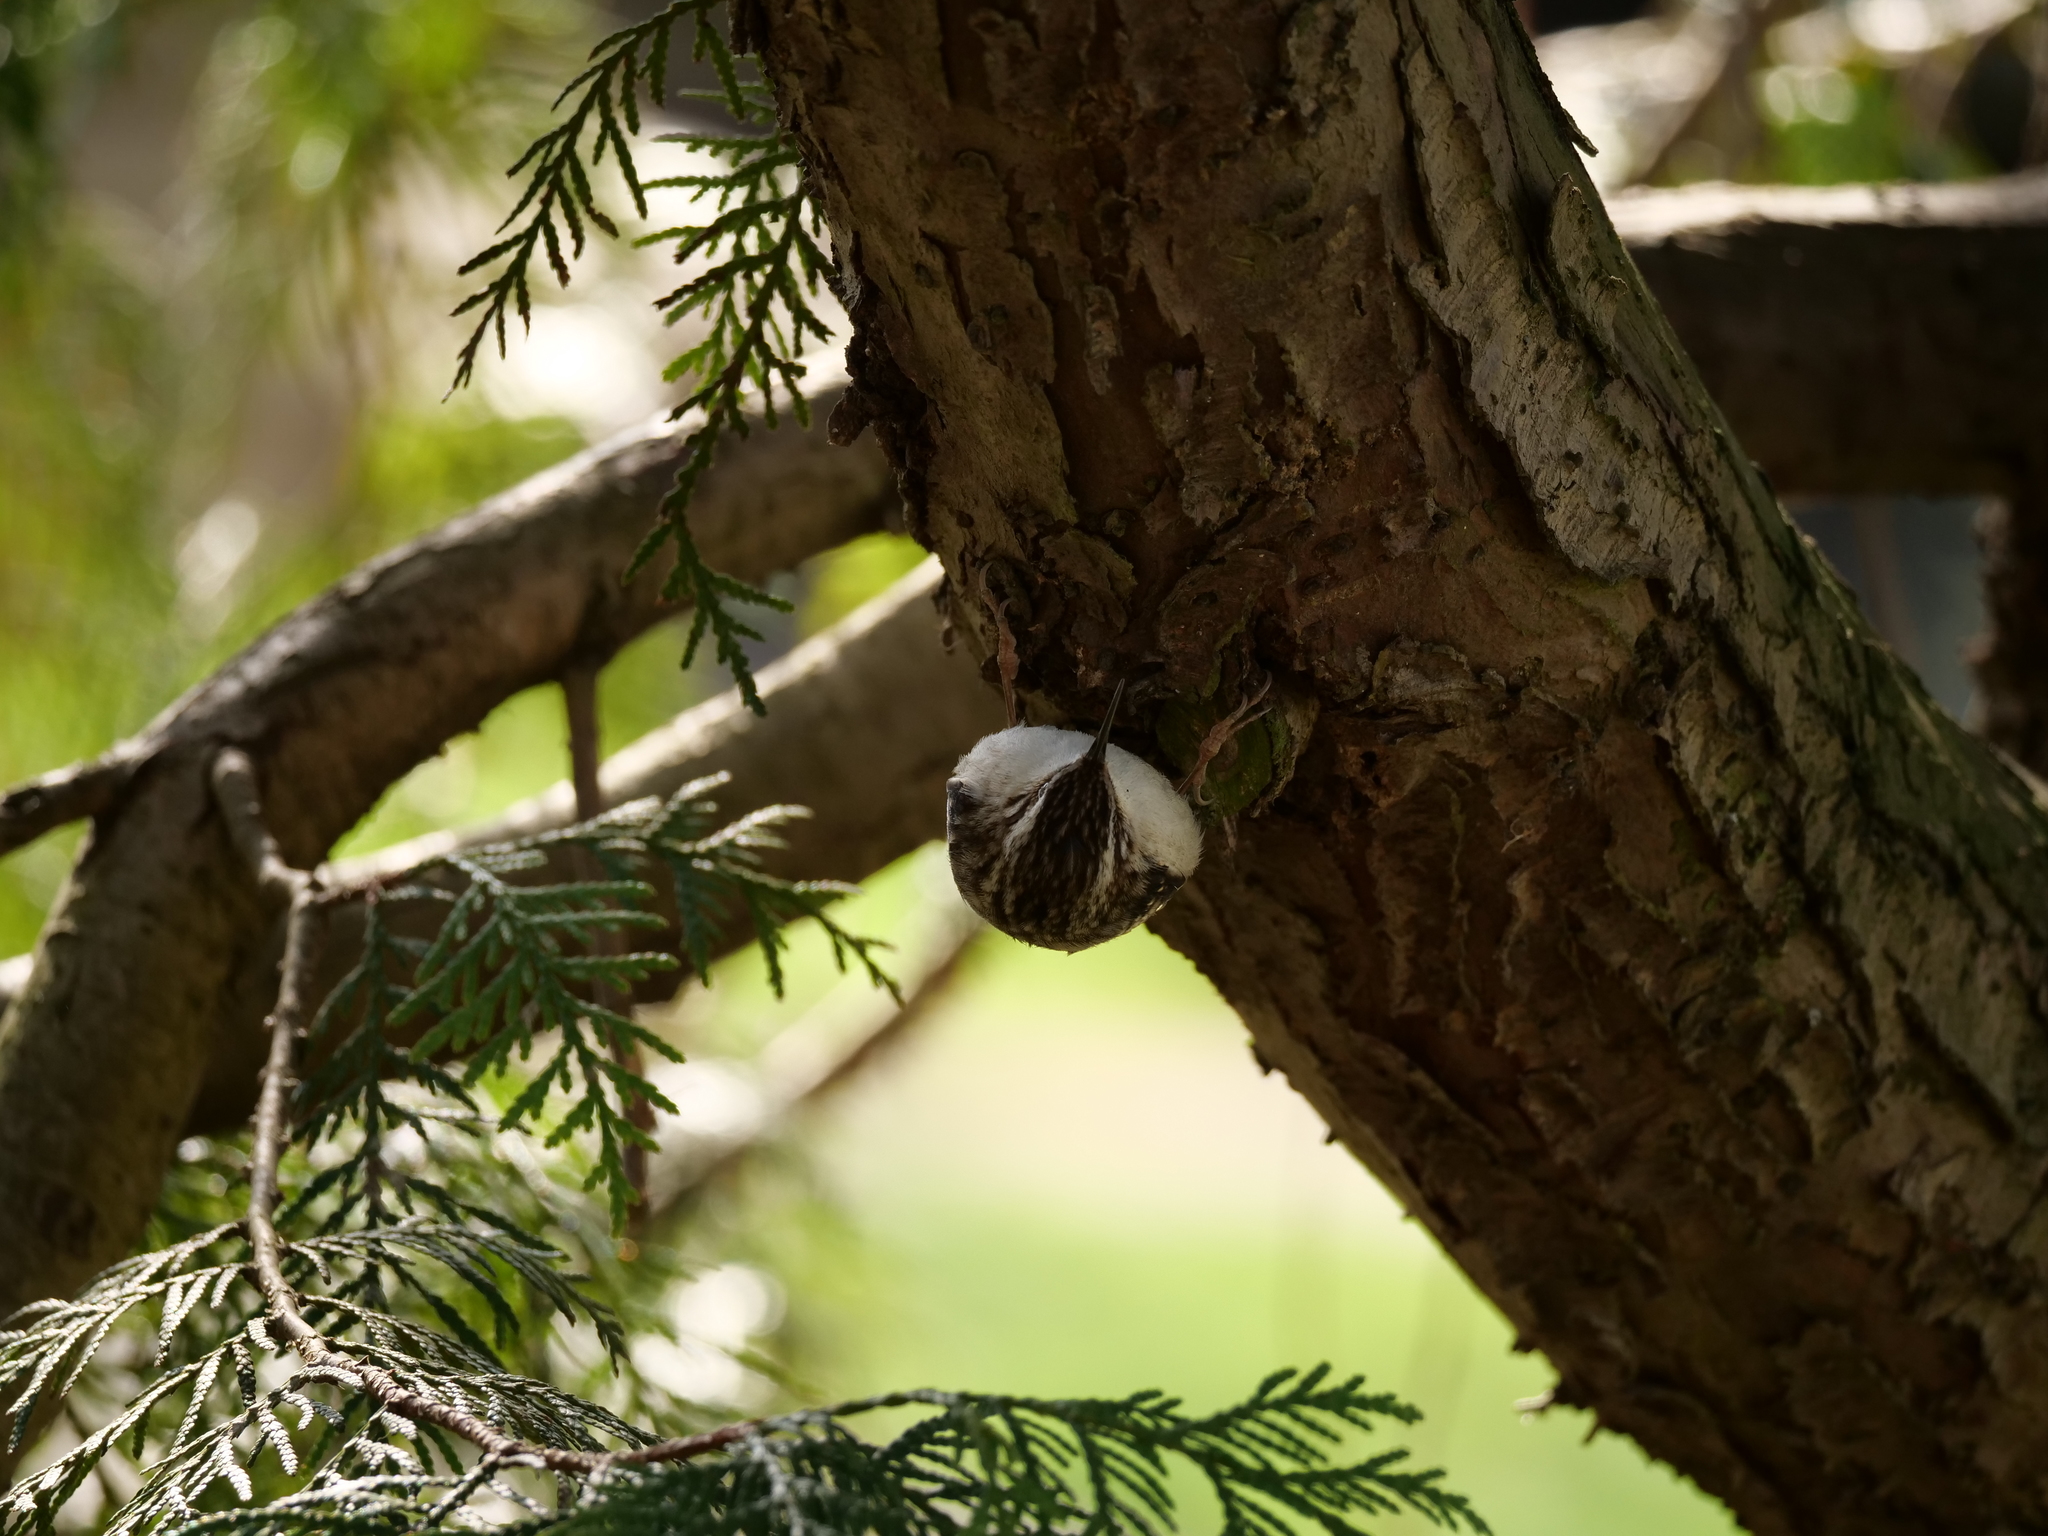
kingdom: Animalia
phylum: Chordata
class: Aves
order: Passeriformes
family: Certhiidae
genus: Certhia
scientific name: Certhia americana
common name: Brown creeper
